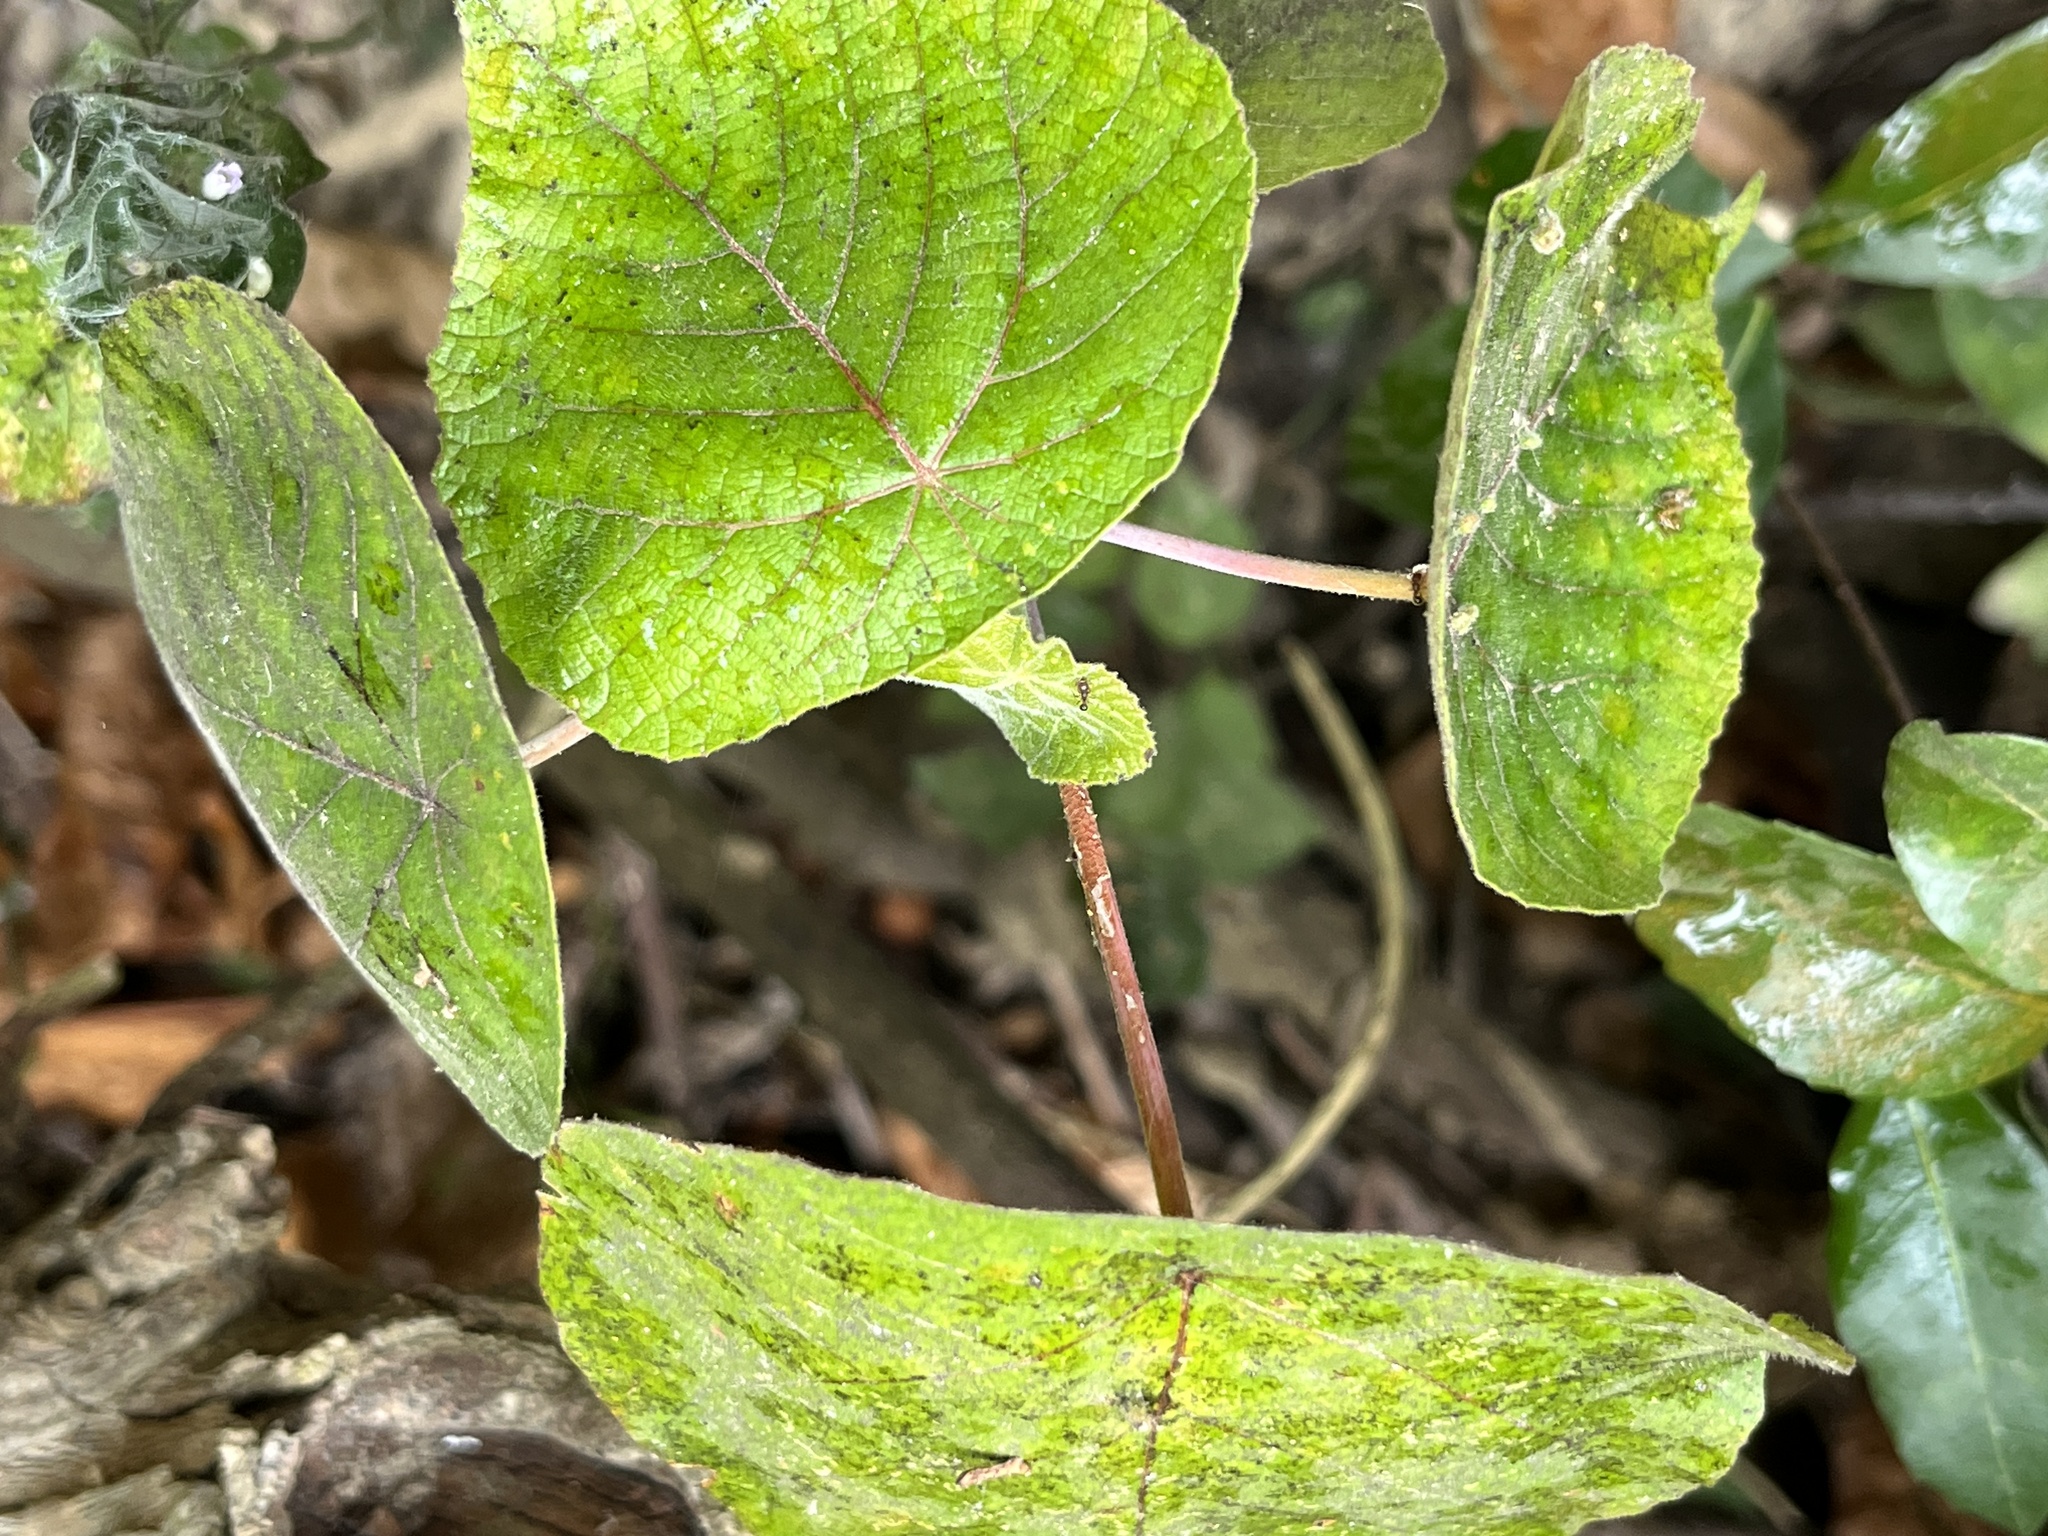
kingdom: Plantae
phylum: Tracheophyta
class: Magnoliopsida
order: Malpighiales
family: Euphorbiaceae
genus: Macaranga
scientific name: Macaranga tanarius
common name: Parasol leaf tree
